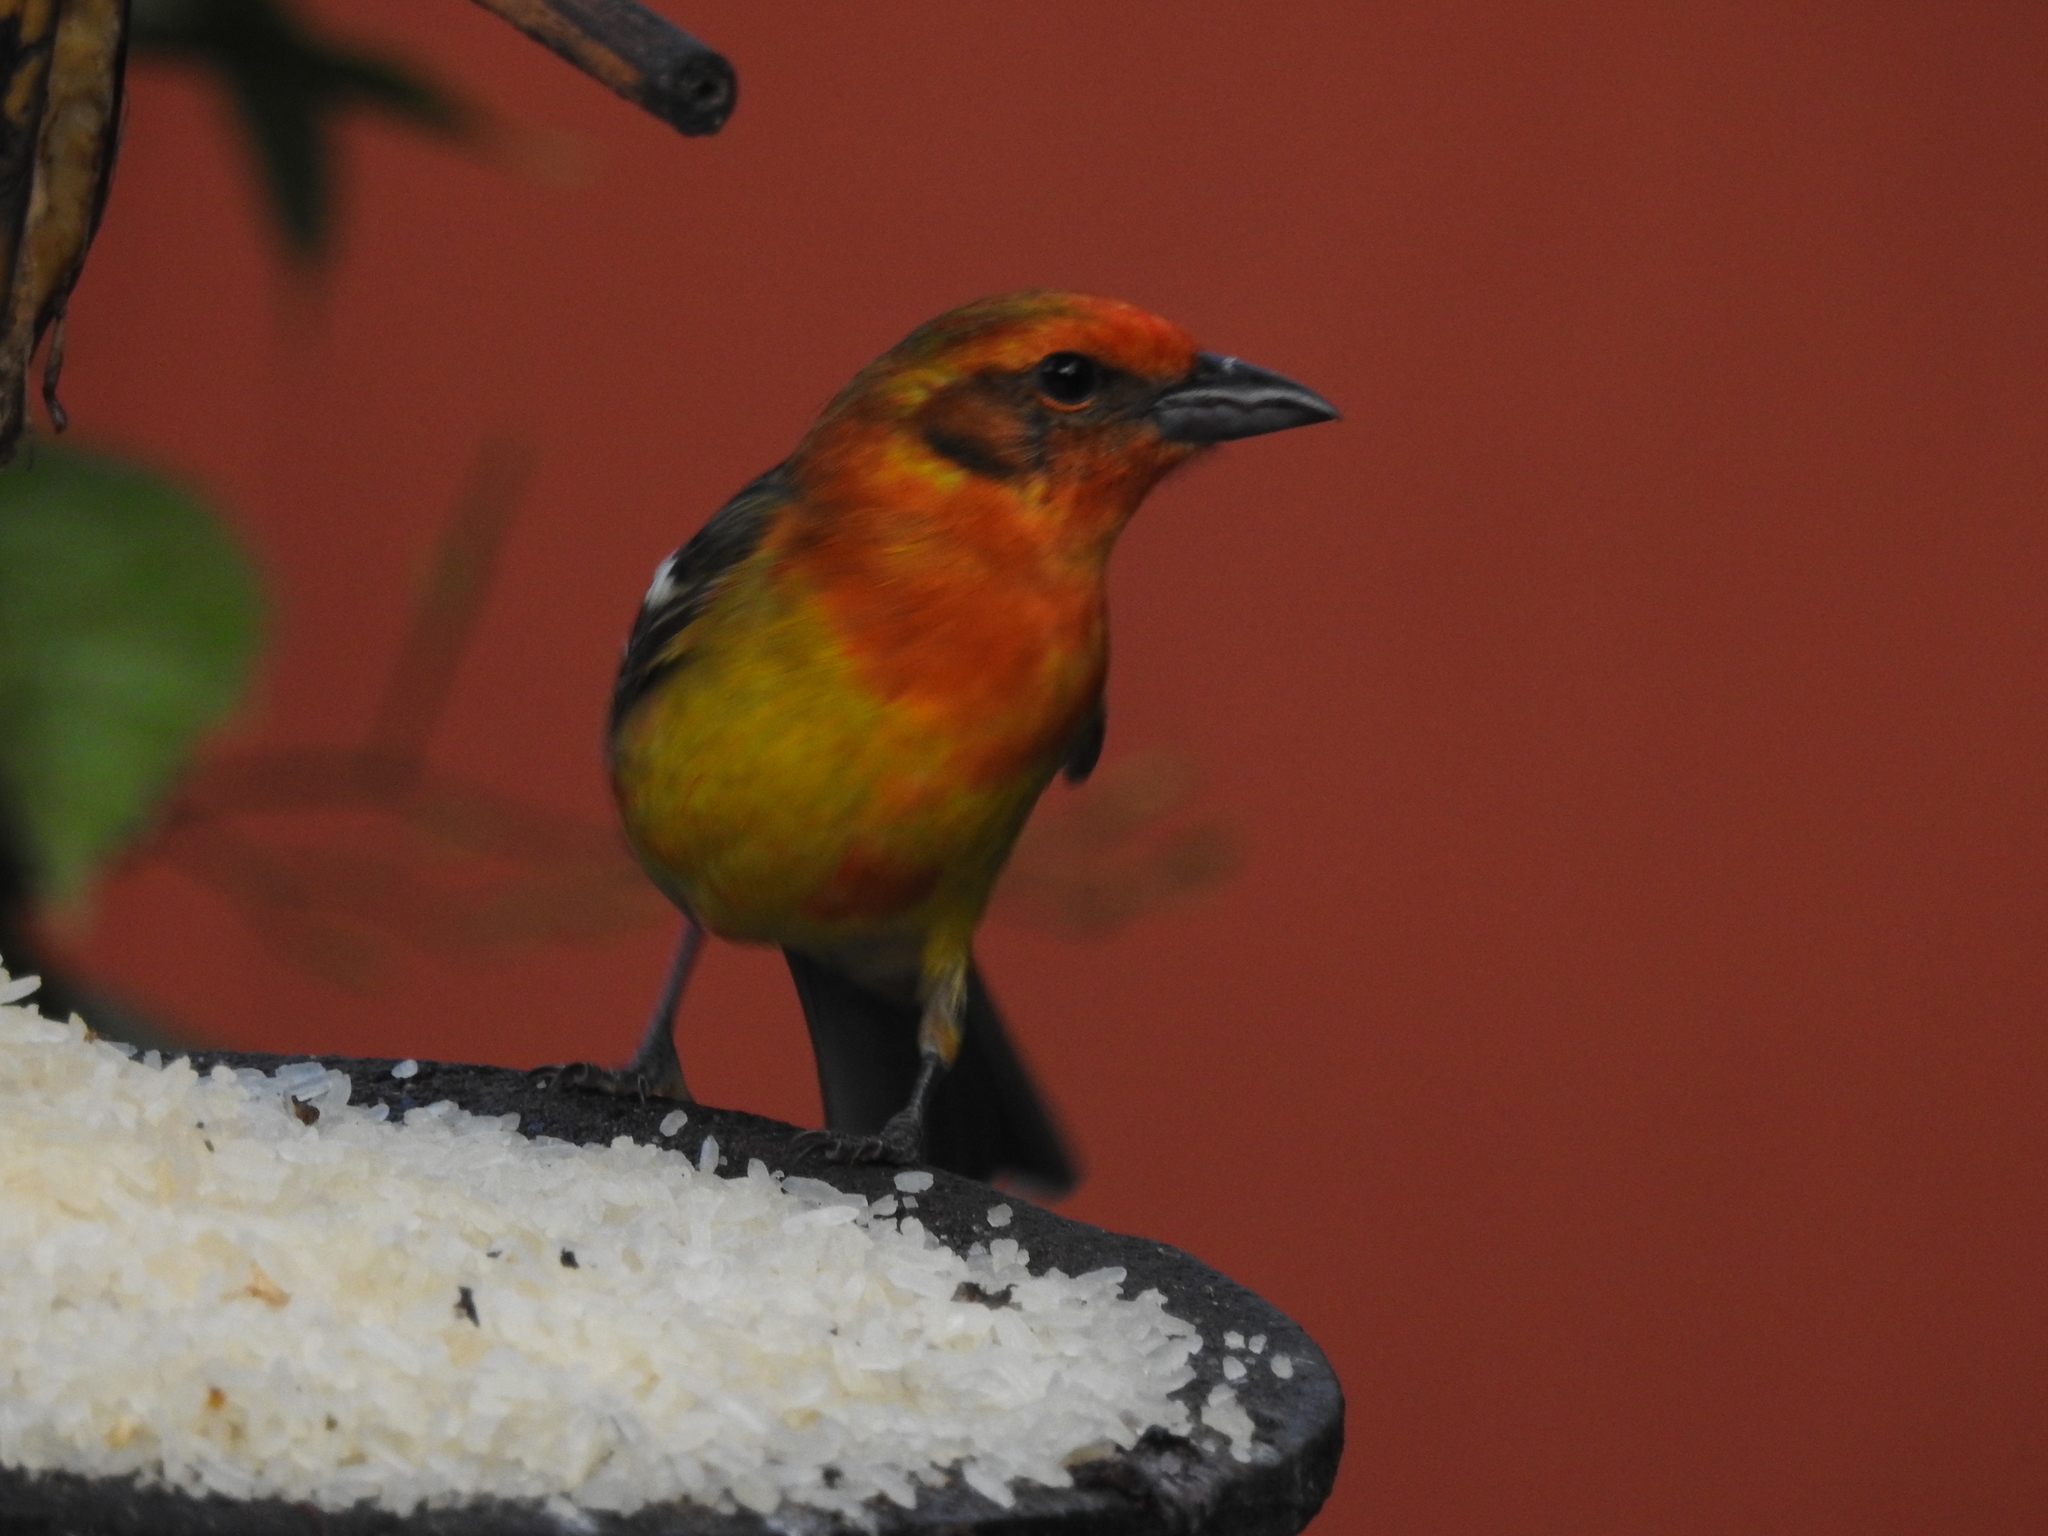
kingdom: Animalia
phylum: Chordata
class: Aves
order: Passeriformes
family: Cardinalidae
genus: Piranga
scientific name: Piranga bidentata
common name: Flame-colored tanager
